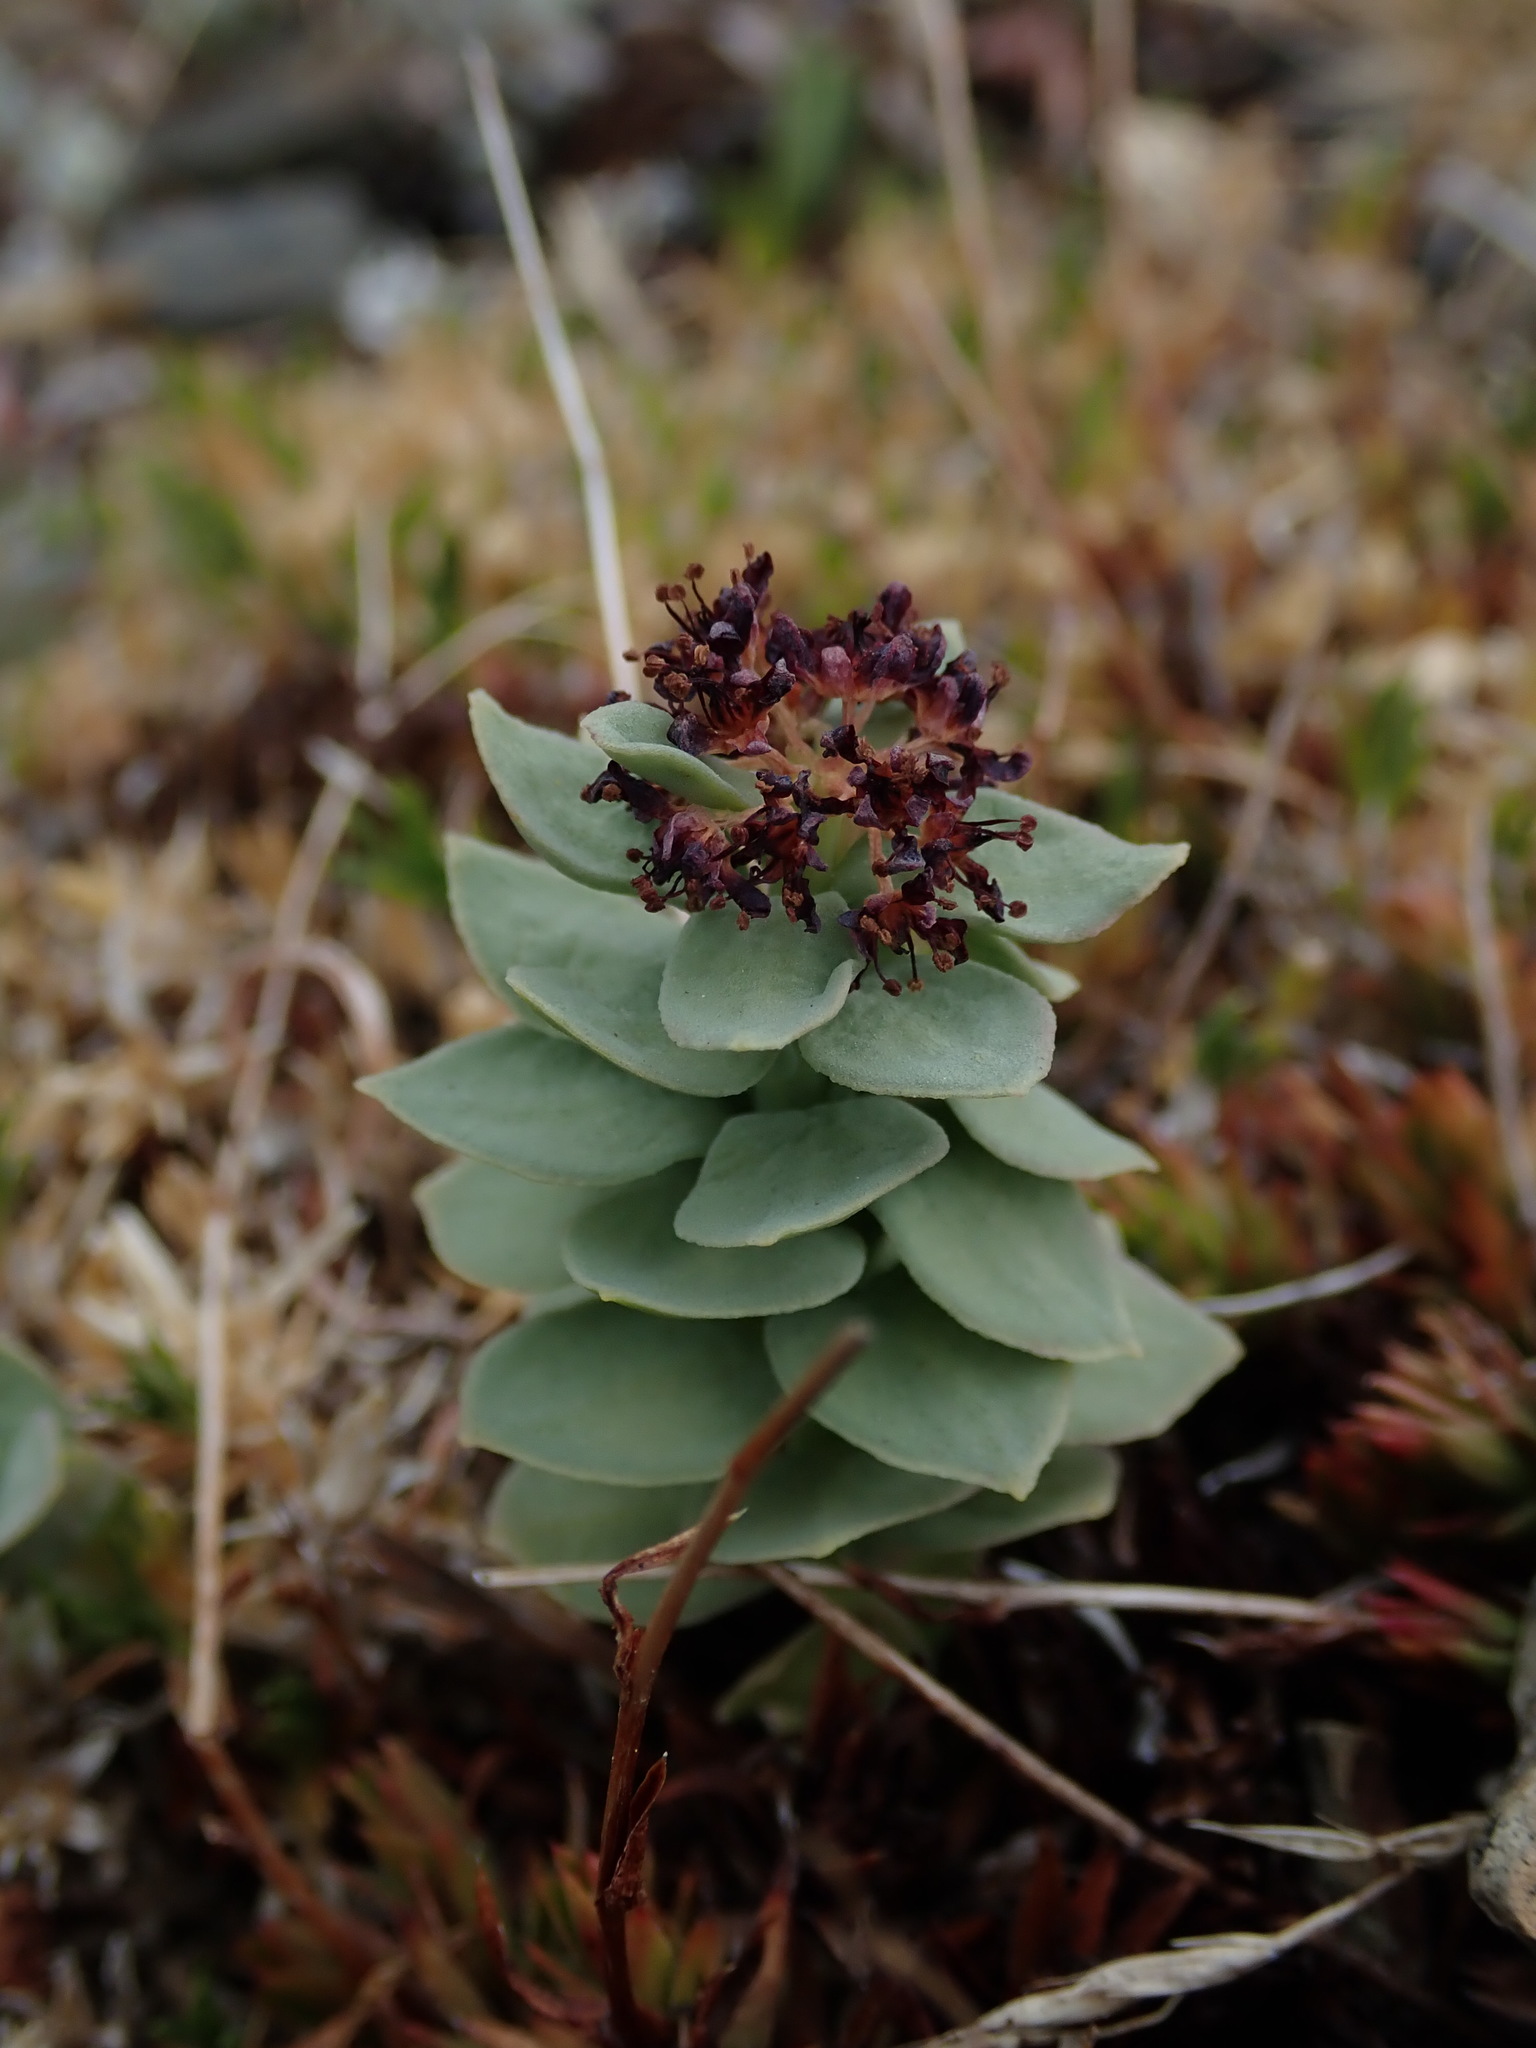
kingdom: Plantae
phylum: Tracheophyta
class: Magnoliopsida
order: Saxifragales
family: Crassulaceae
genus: Rhodiola
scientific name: Rhodiola integrifolia
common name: Western roseroot
